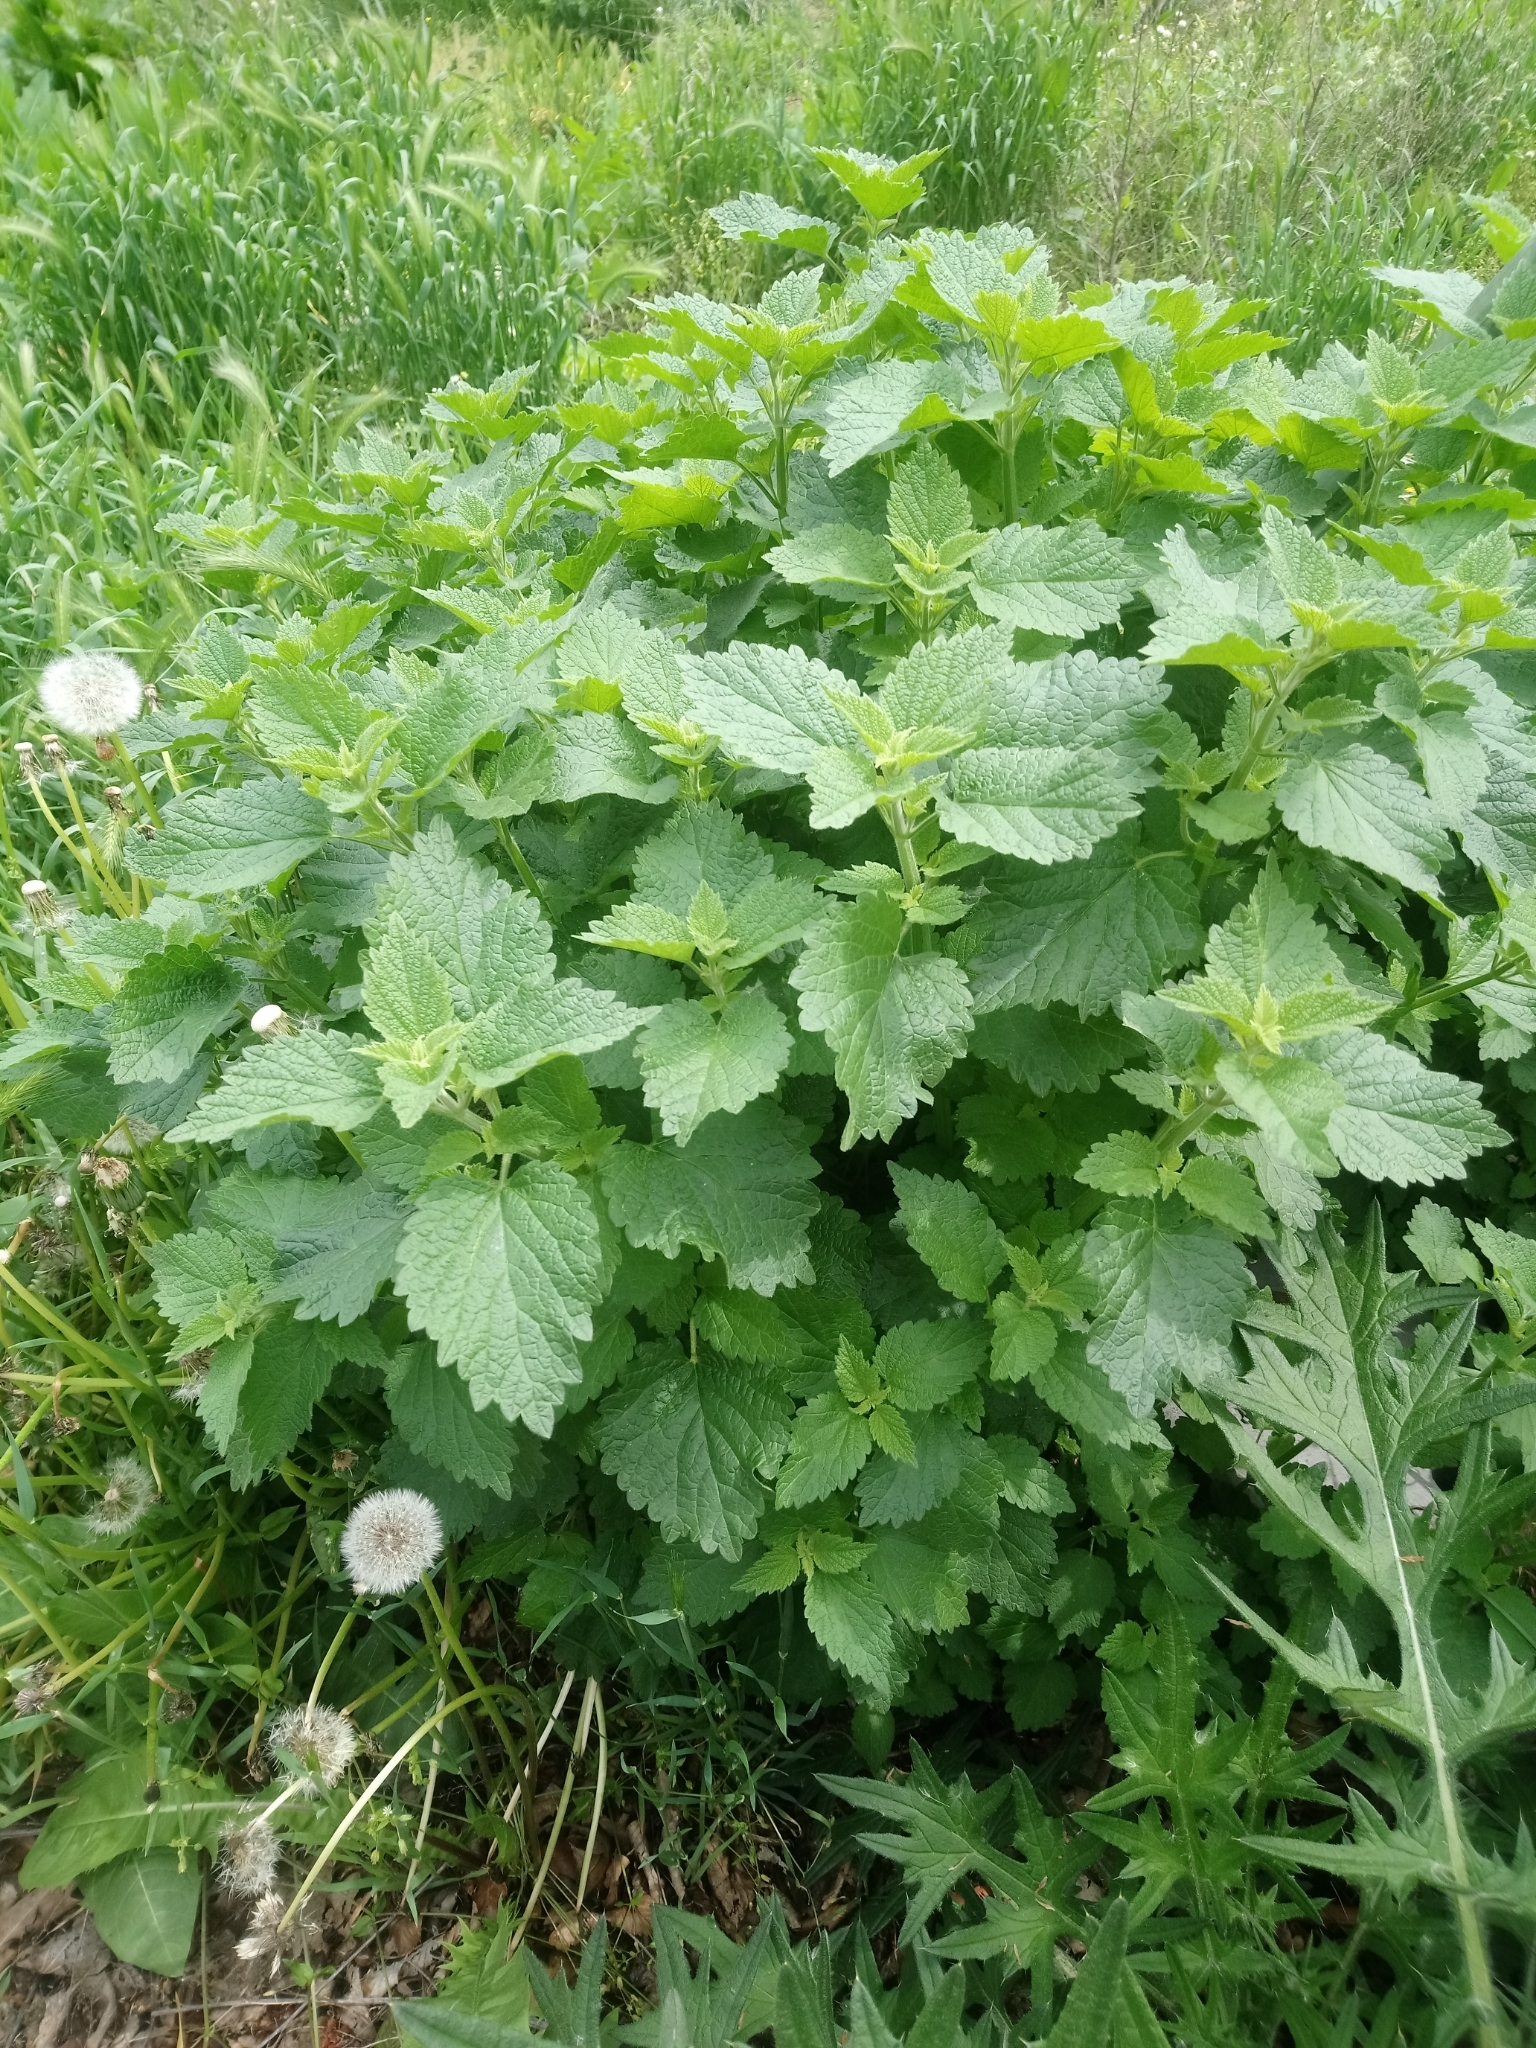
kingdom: Plantae
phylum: Tracheophyta
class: Magnoliopsida
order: Lamiales
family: Lamiaceae
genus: Ballota
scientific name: Ballota nigra
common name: Black horehound
